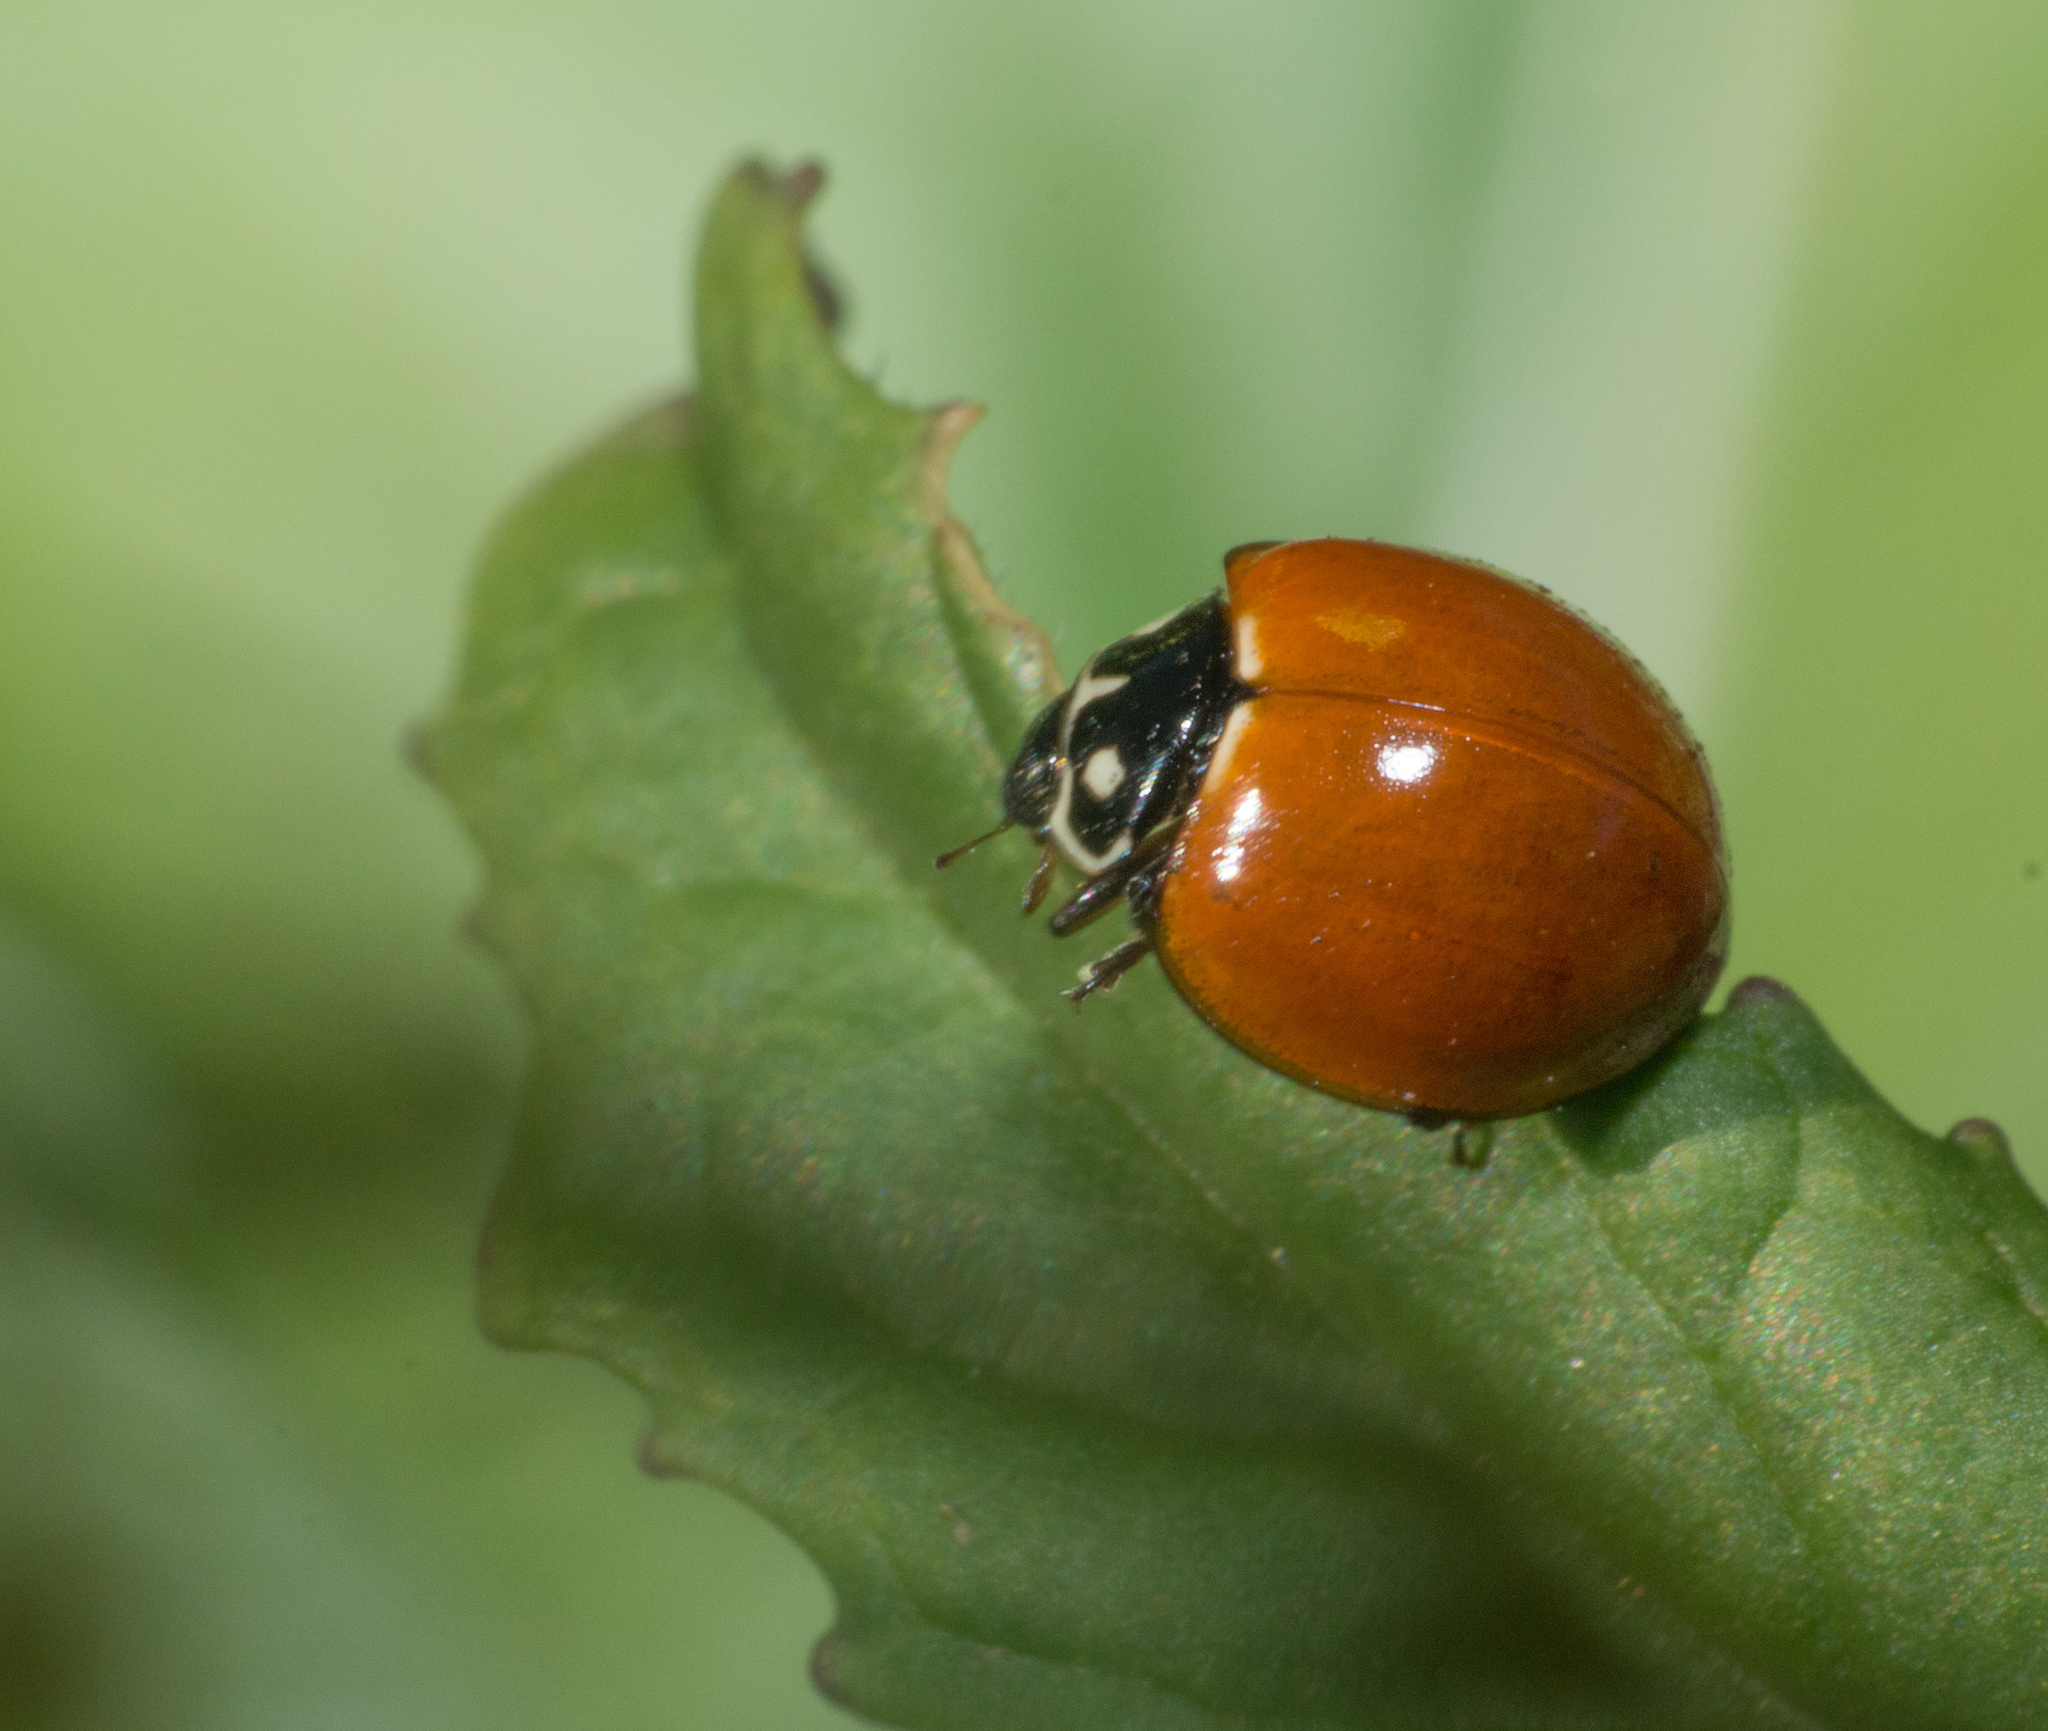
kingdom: Animalia
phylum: Arthropoda
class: Insecta
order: Coleoptera
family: Coccinellidae
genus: Cycloneda
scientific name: Cycloneda sanguinea
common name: Ladybird beetle
